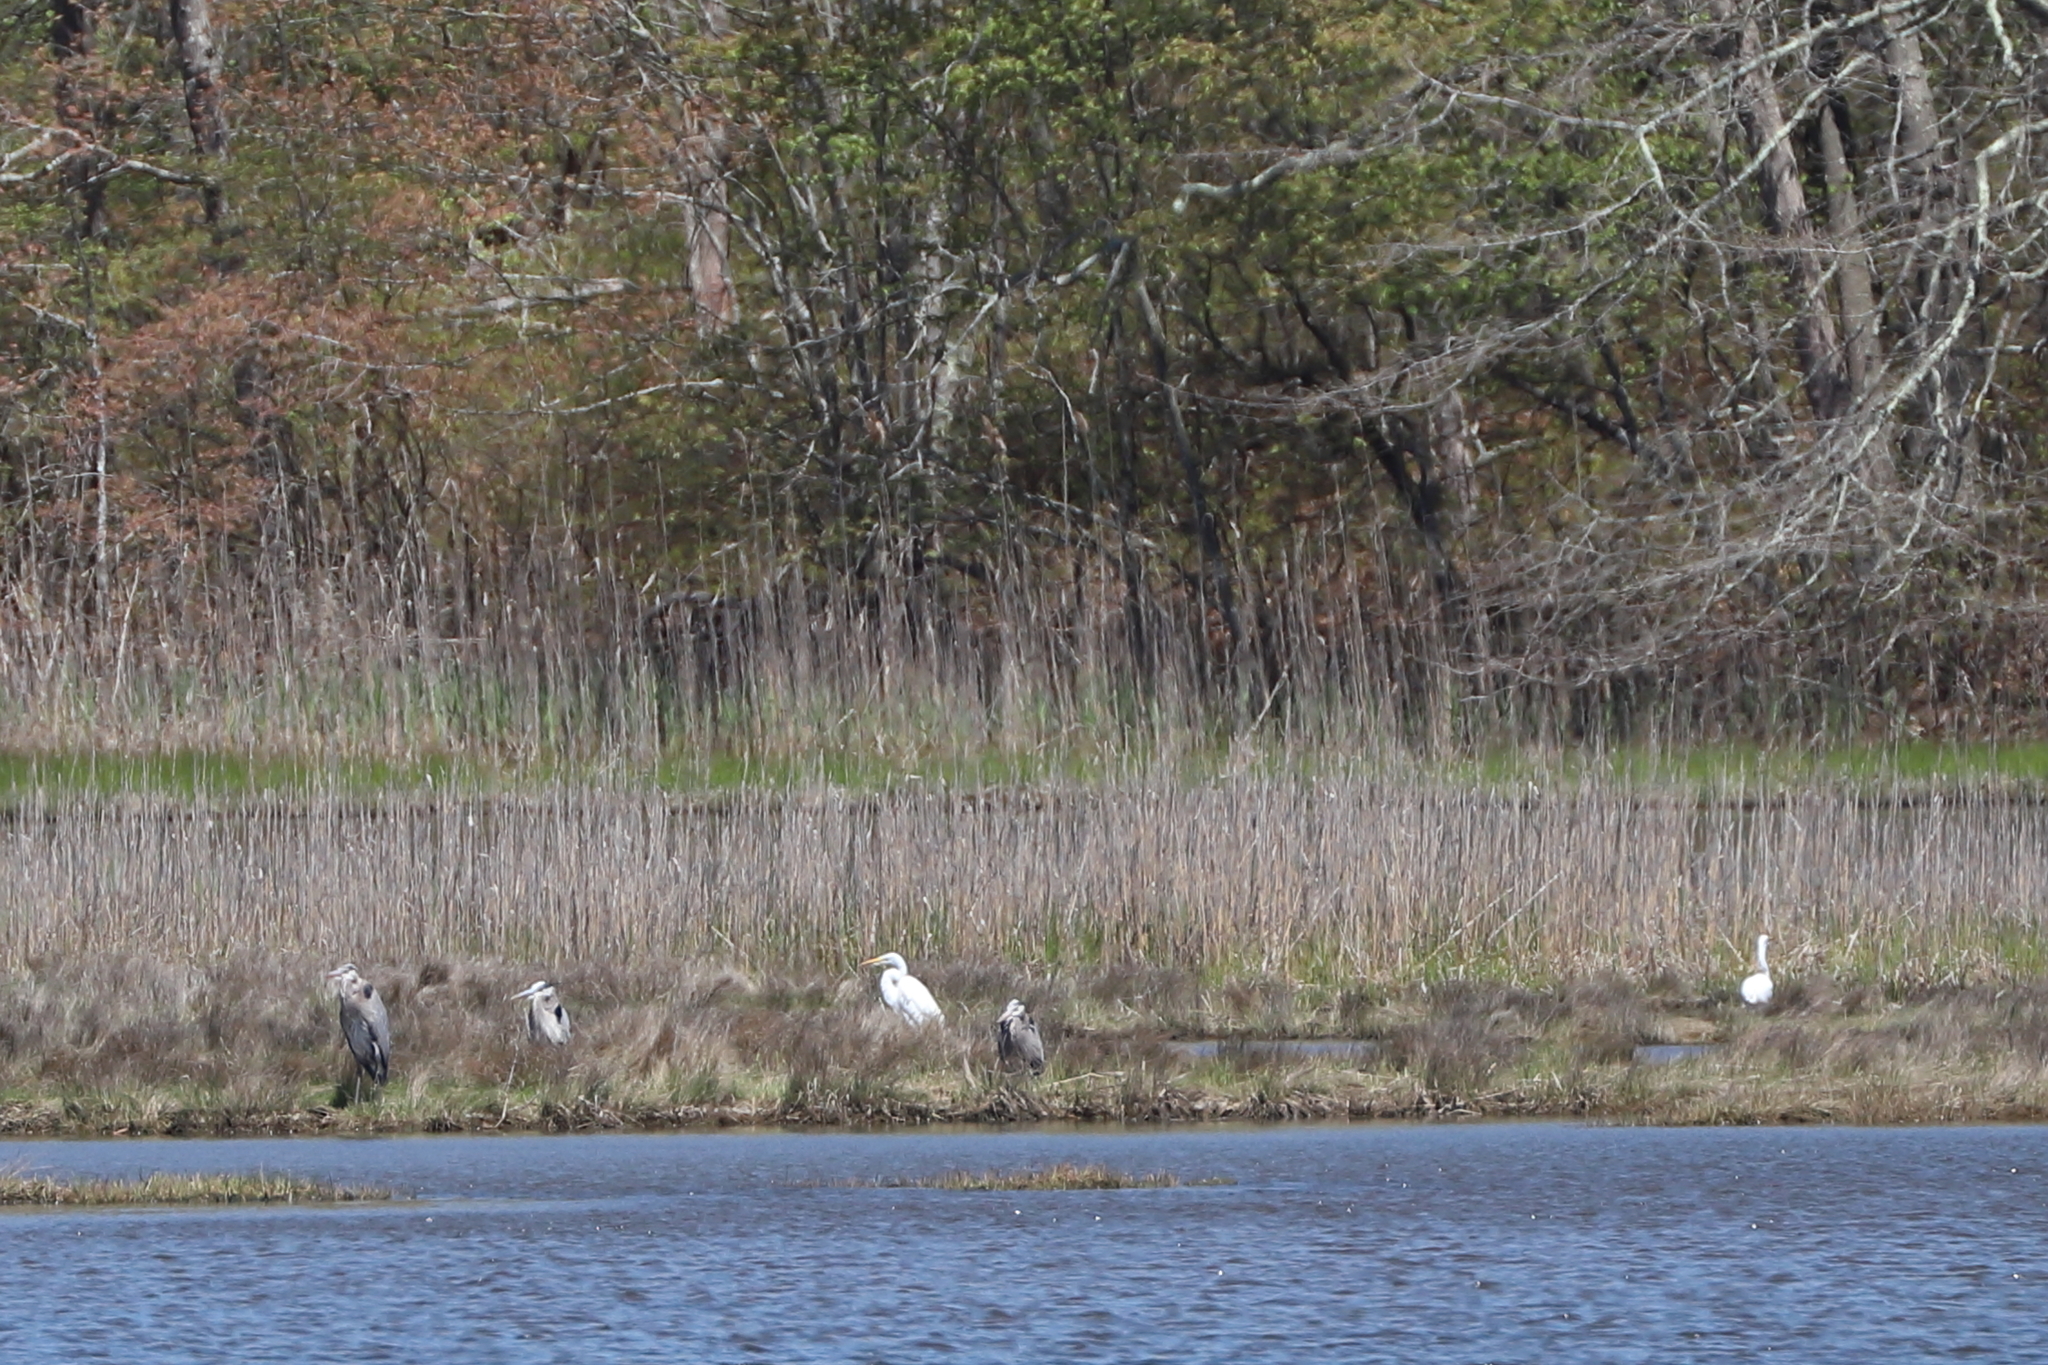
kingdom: Animalia
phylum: Chordata
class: Aves
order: Pelecaniformes
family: Ardeidae
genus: Ardea
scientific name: Ardea herodias
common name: Great blue heron
